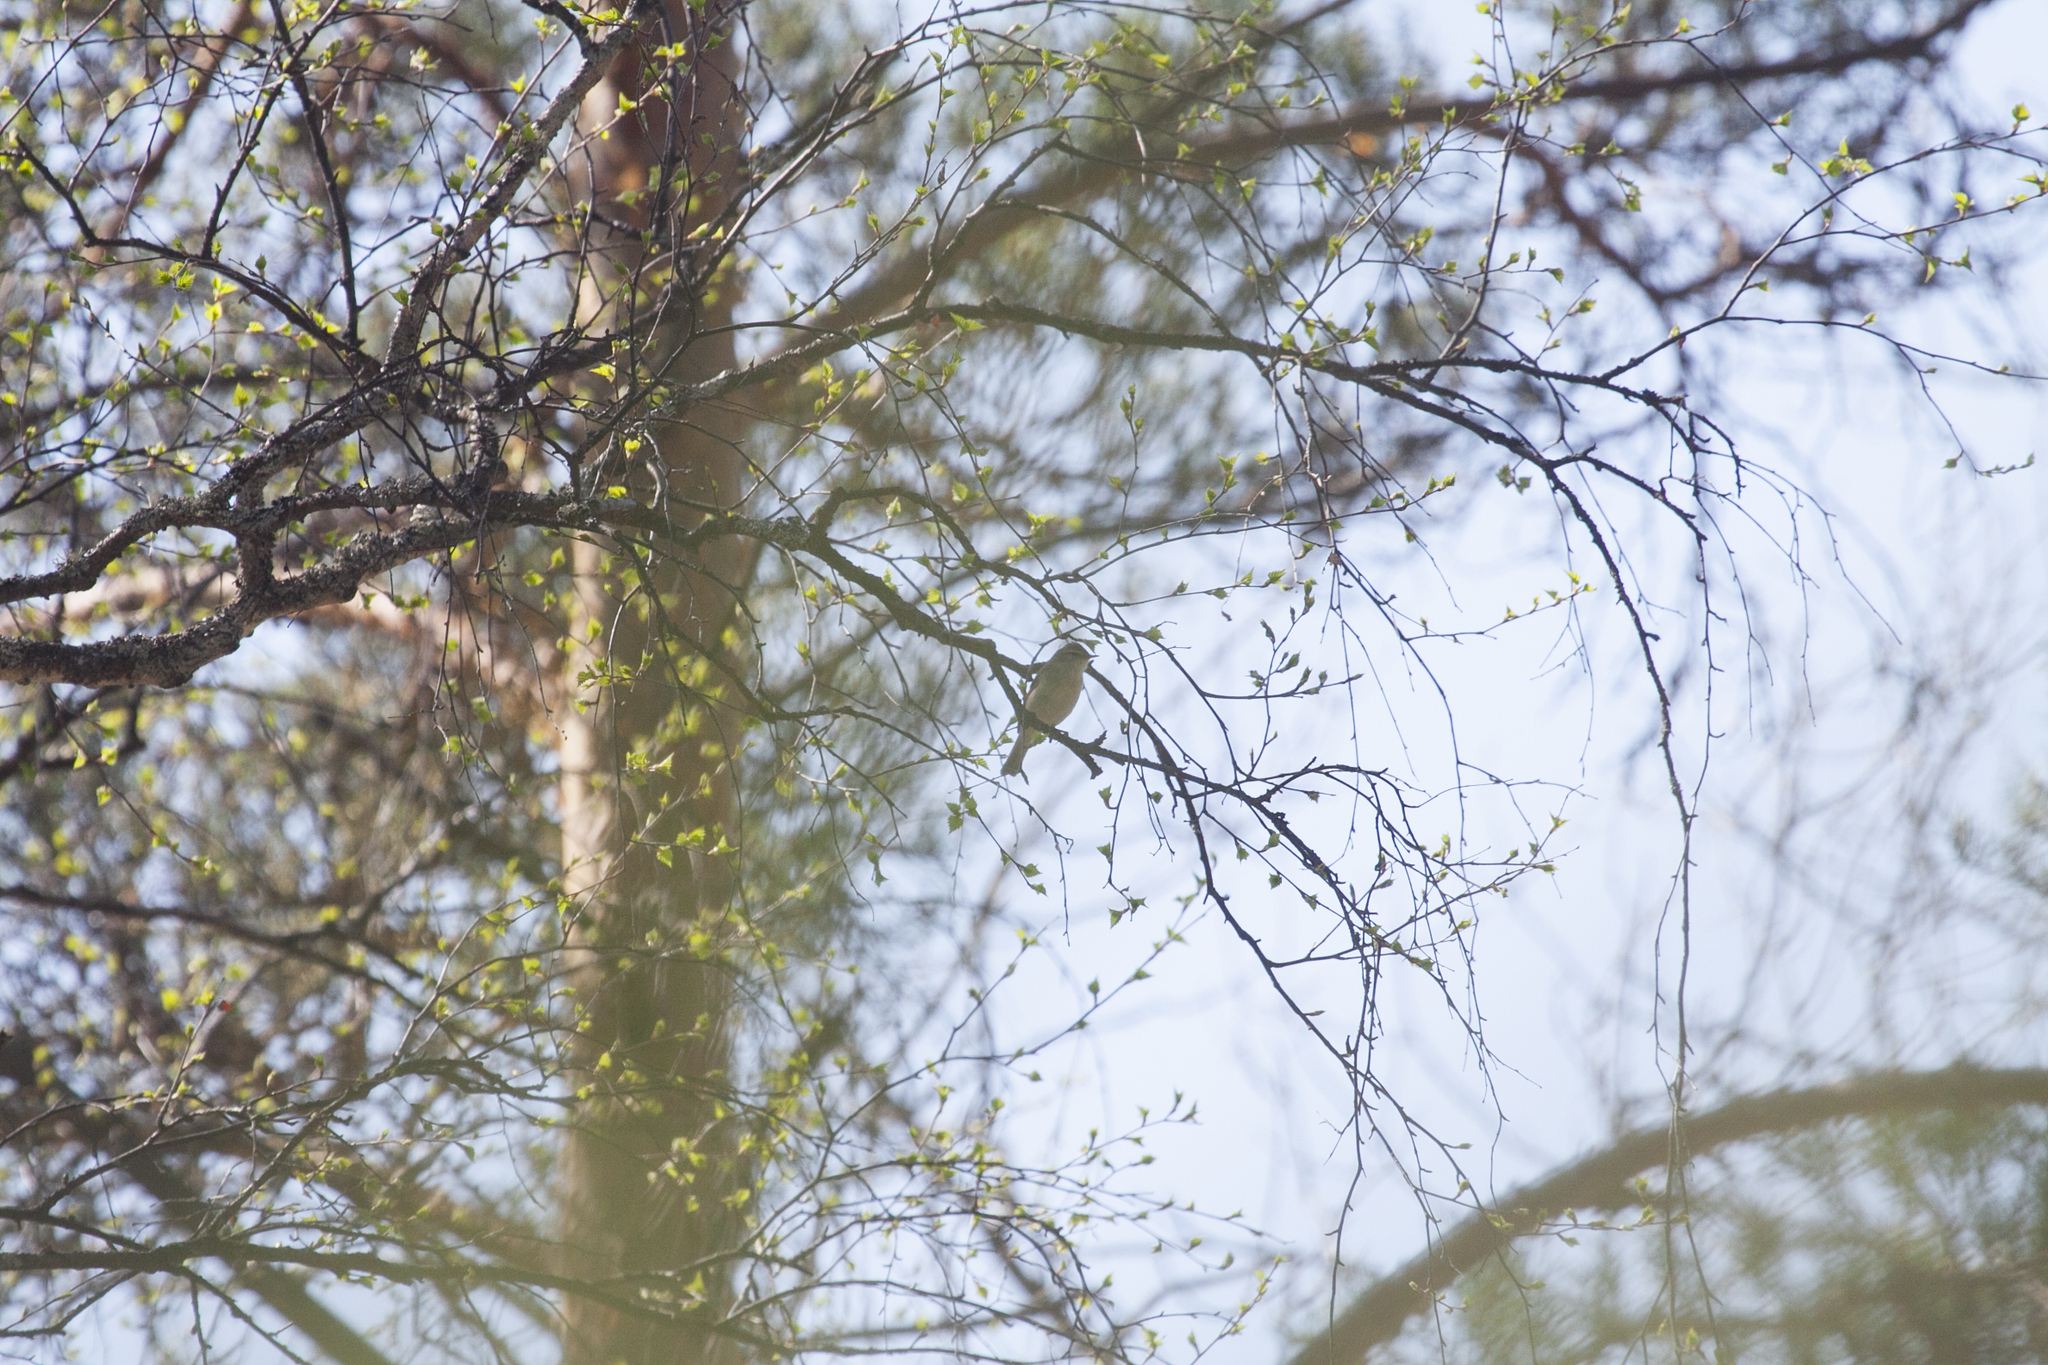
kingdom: Animalia
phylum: Chordata
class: Aves
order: Passeriformes
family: Phylloscopidae
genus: Phylloscopus
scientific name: Phylloscopus collybita
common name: Common chiffchaff
